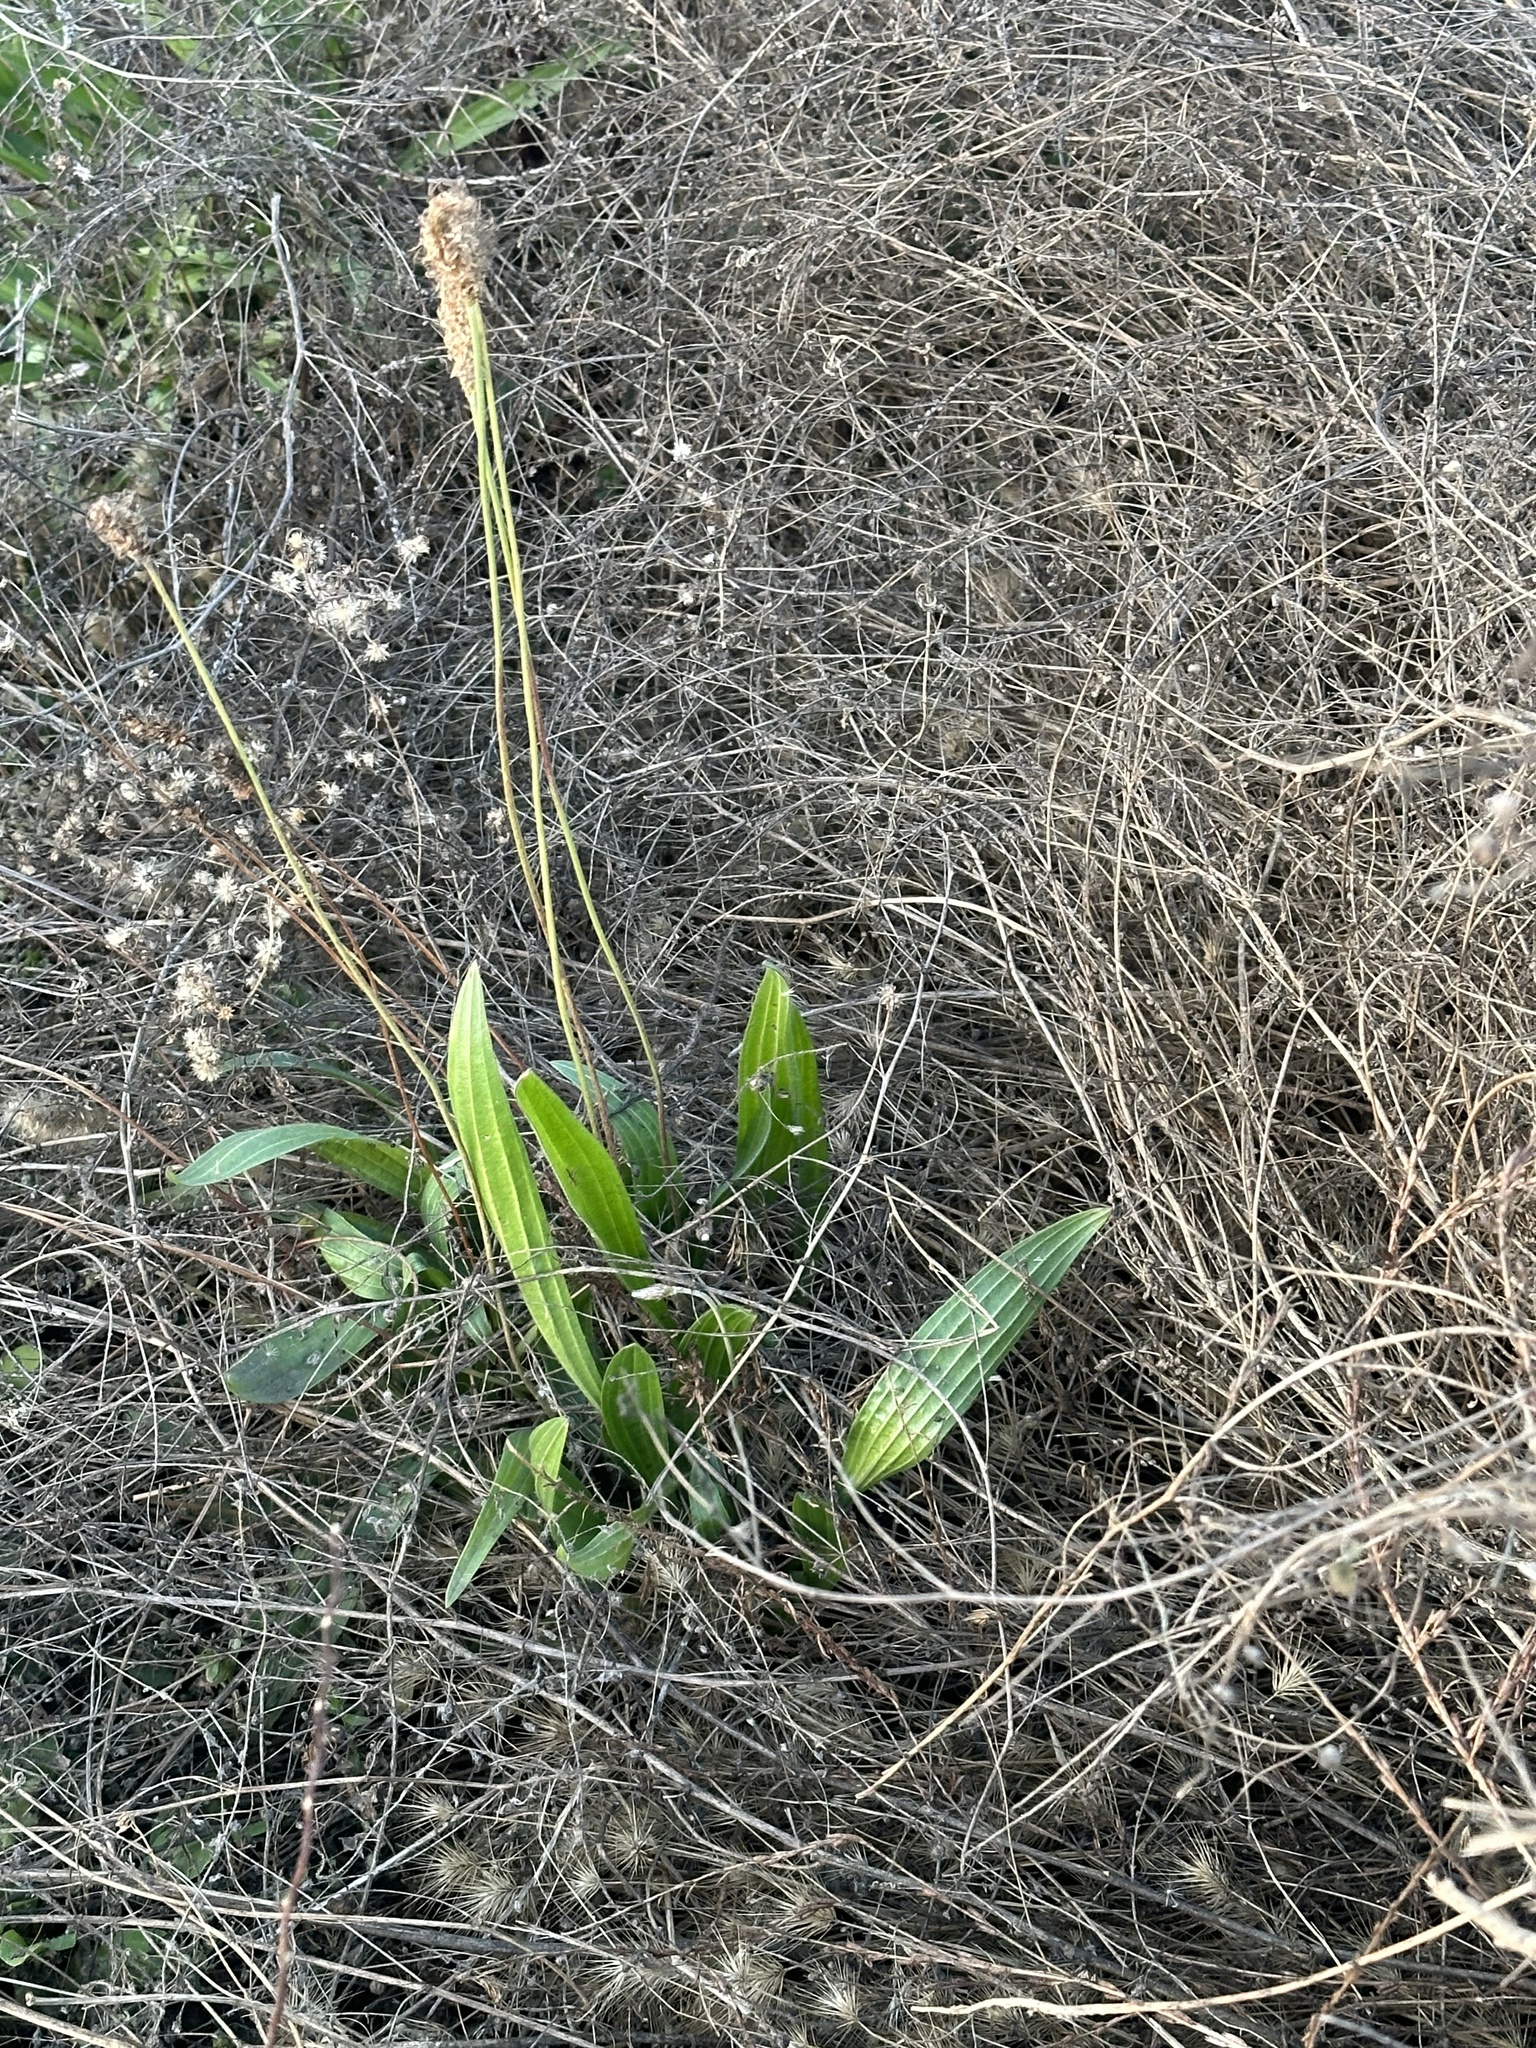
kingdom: Plantae
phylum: Tracheophyta
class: Magnoliopsida
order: Lamiales
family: Plantaginaceae
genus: Plantago
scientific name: Plantago lanceolata
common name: Ribwort plantain
